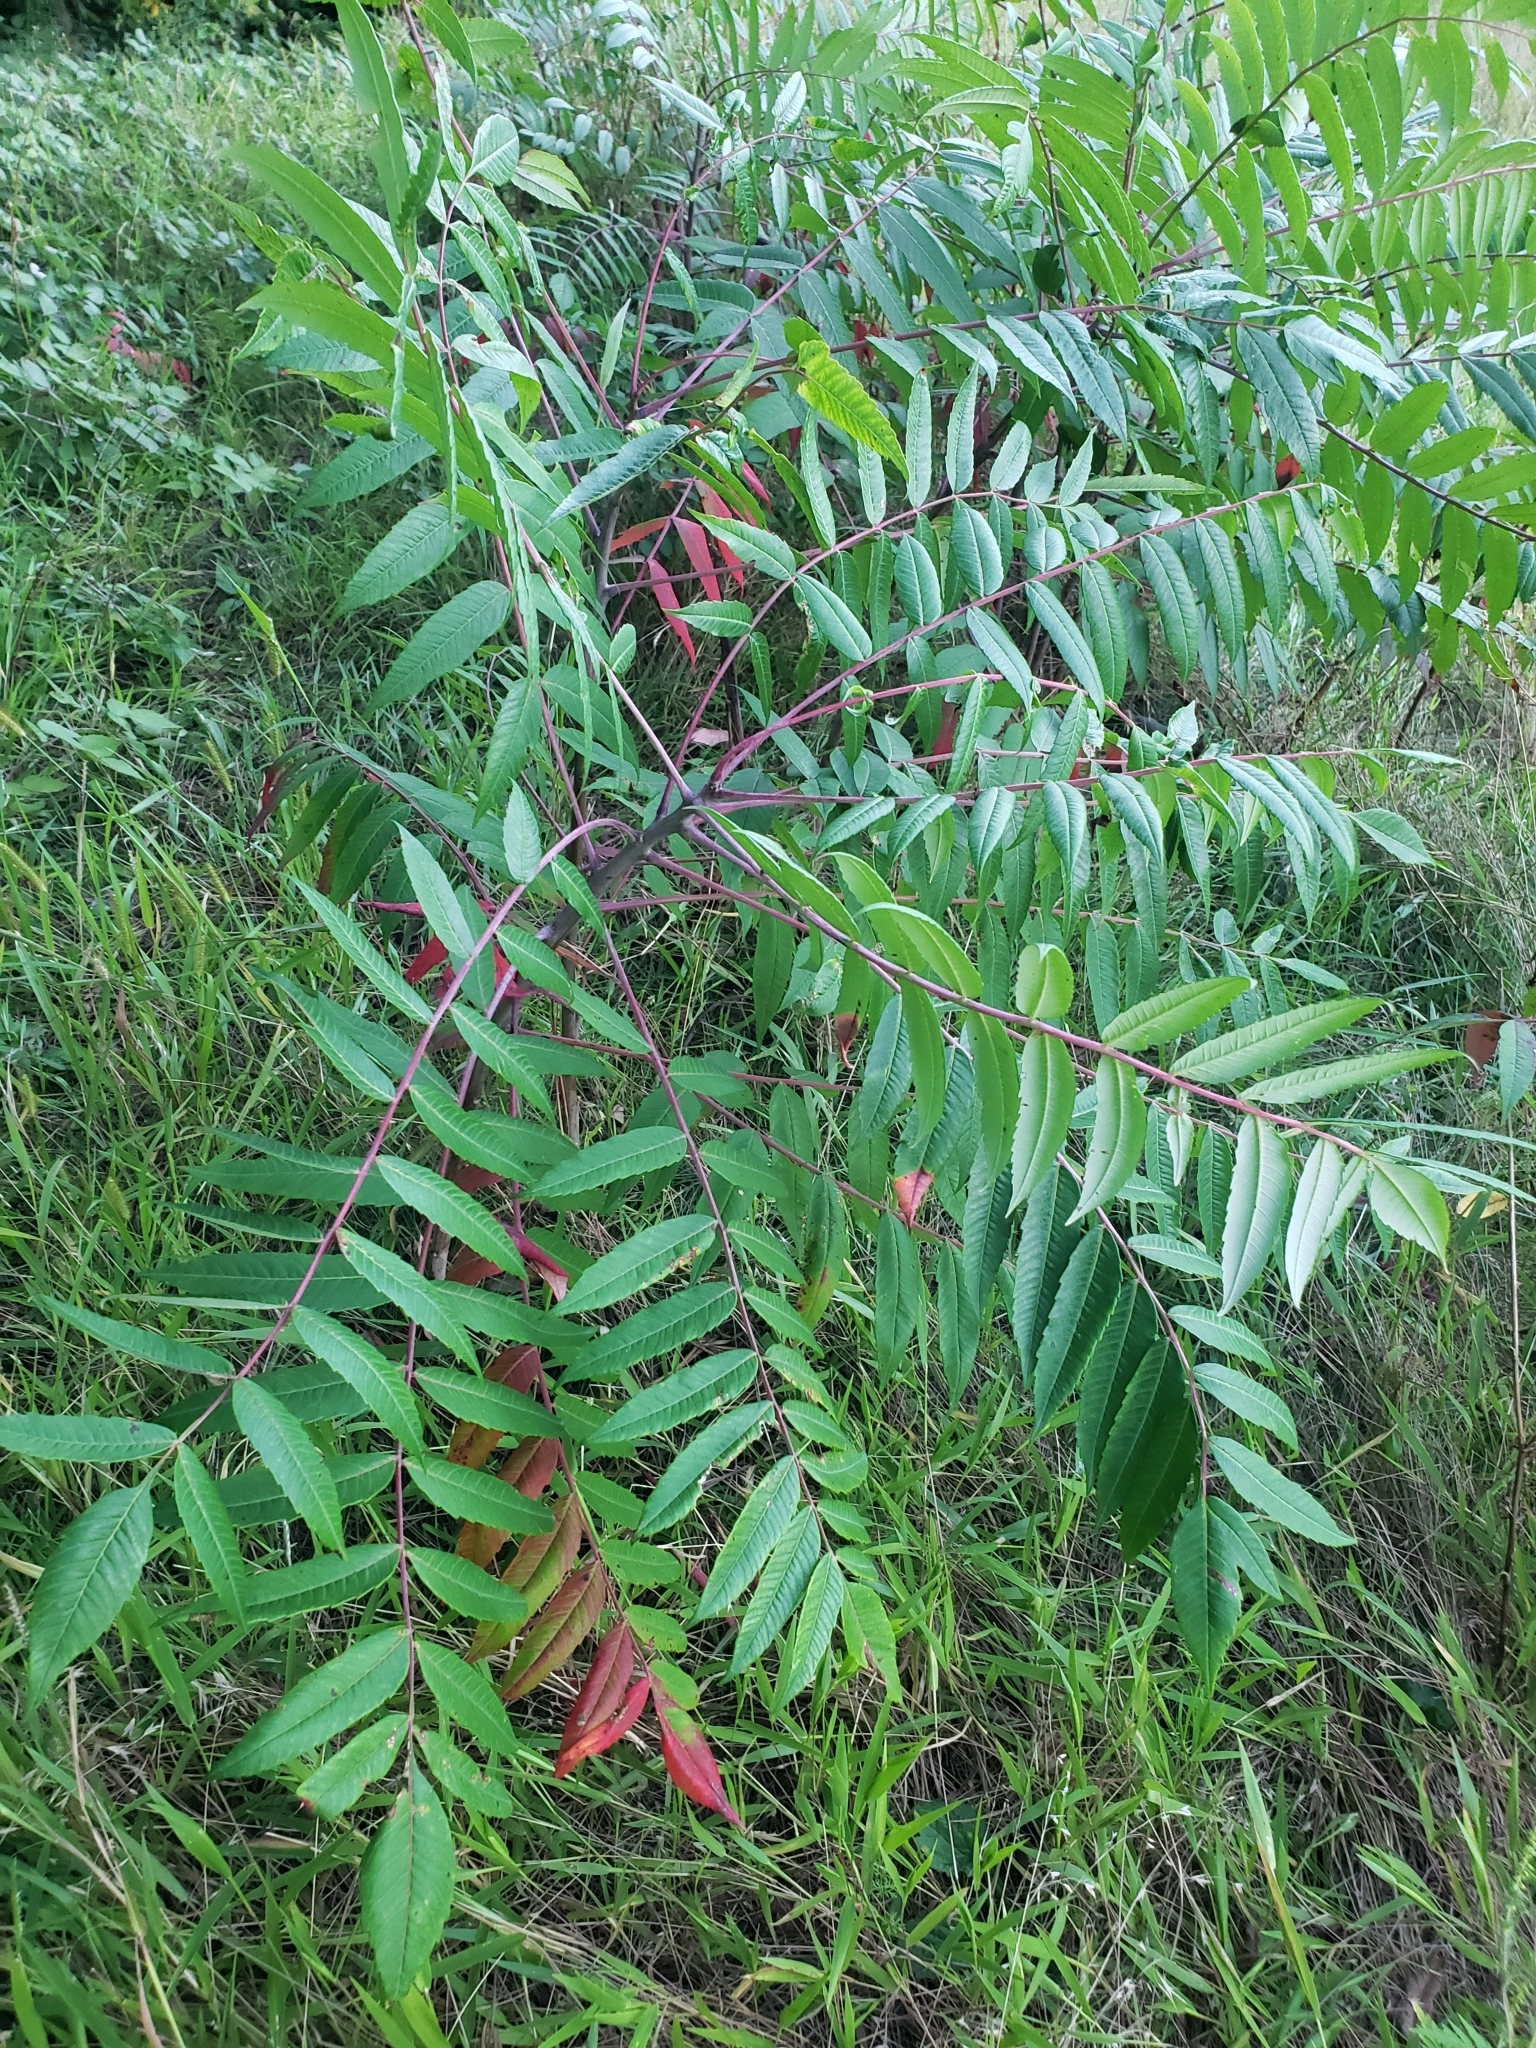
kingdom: Plantae
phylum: Tracheophyta
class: Magnoliopsida
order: Sapindales
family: Anacardiaceae
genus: Rhus
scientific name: Rhus glabra
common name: Scarlet sumac
